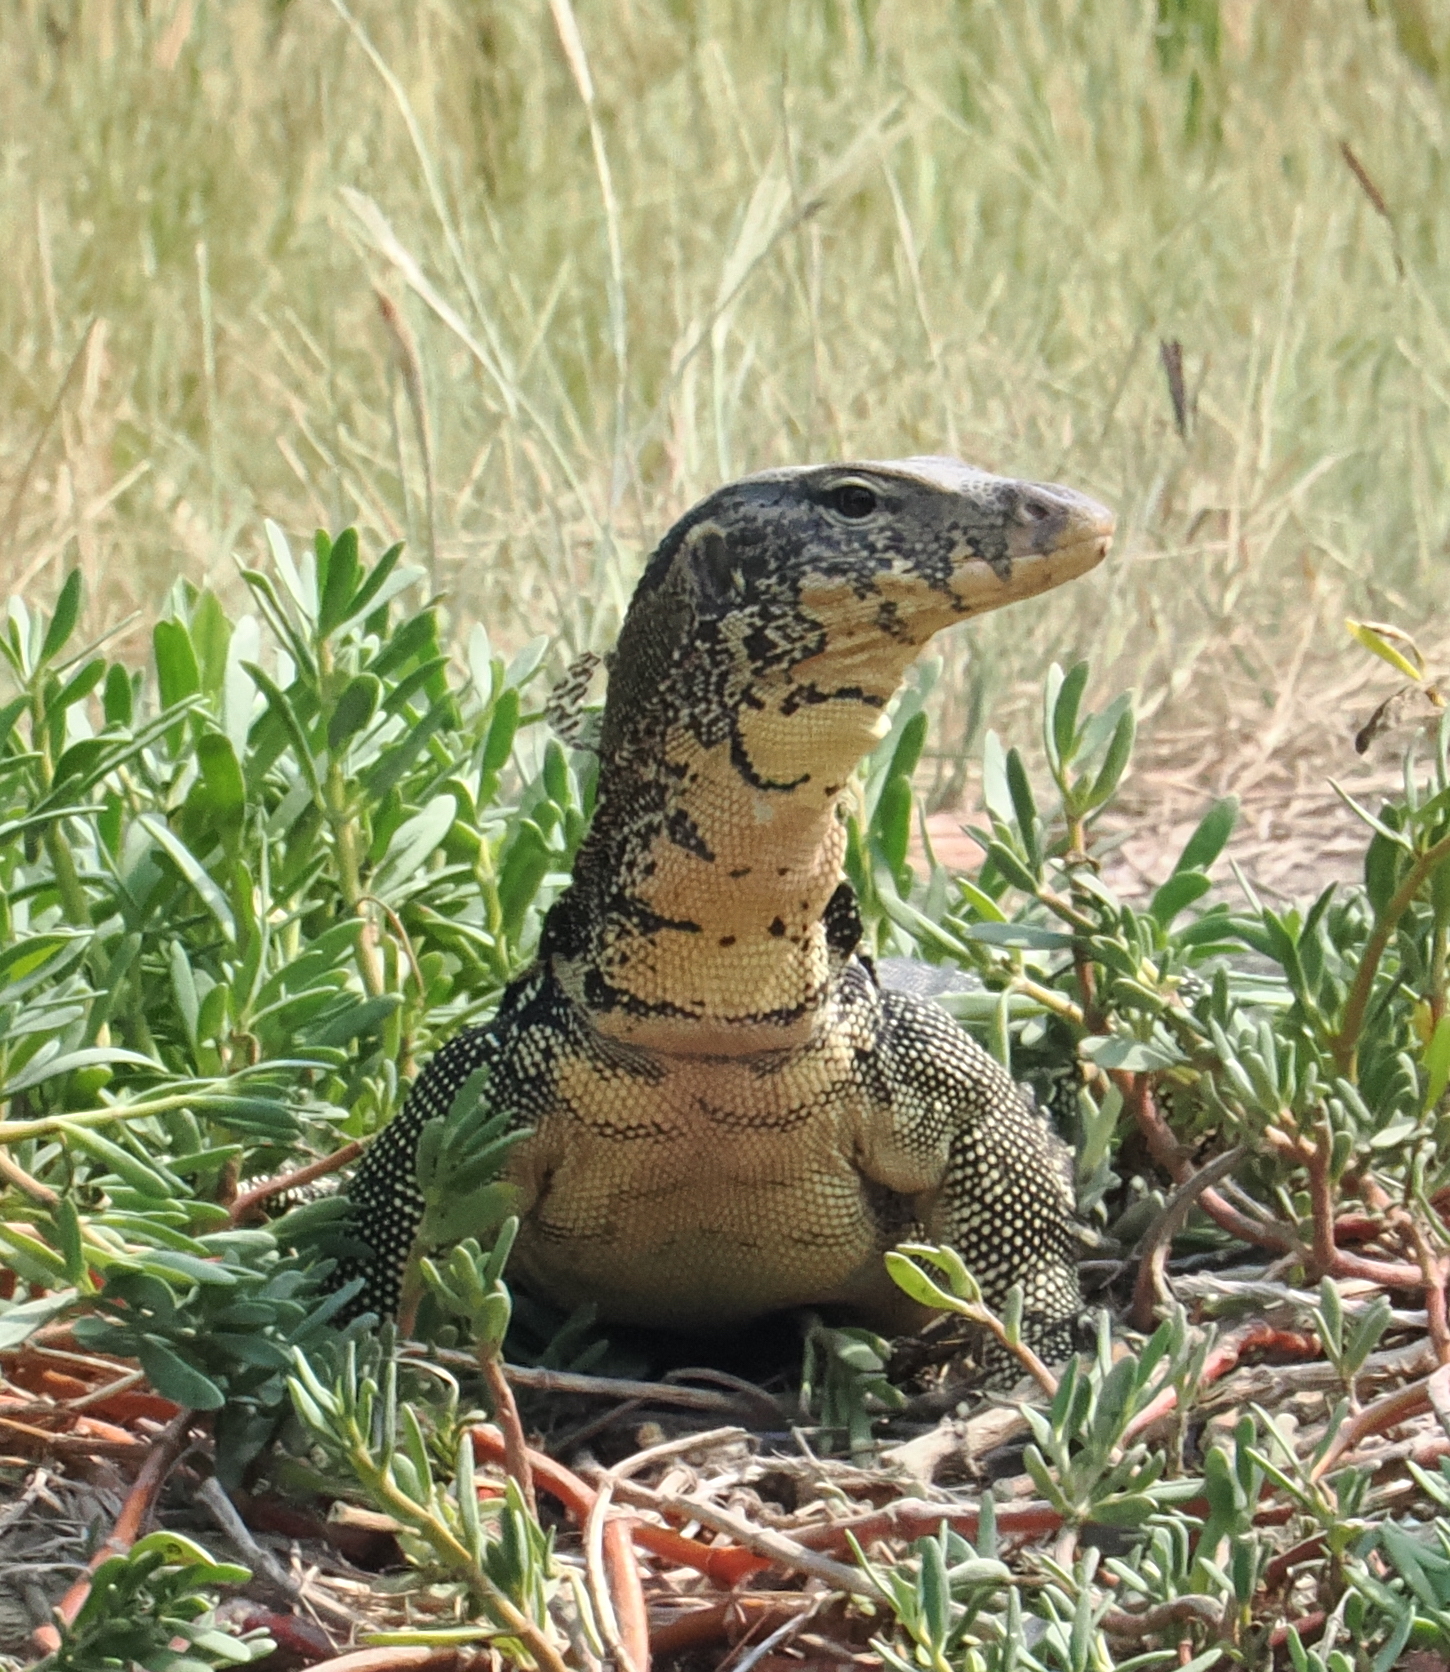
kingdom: Animalia
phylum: Chordata
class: Squamata
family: Varanidae
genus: Varanus
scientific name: Varanus salvator
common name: Common water monitor
